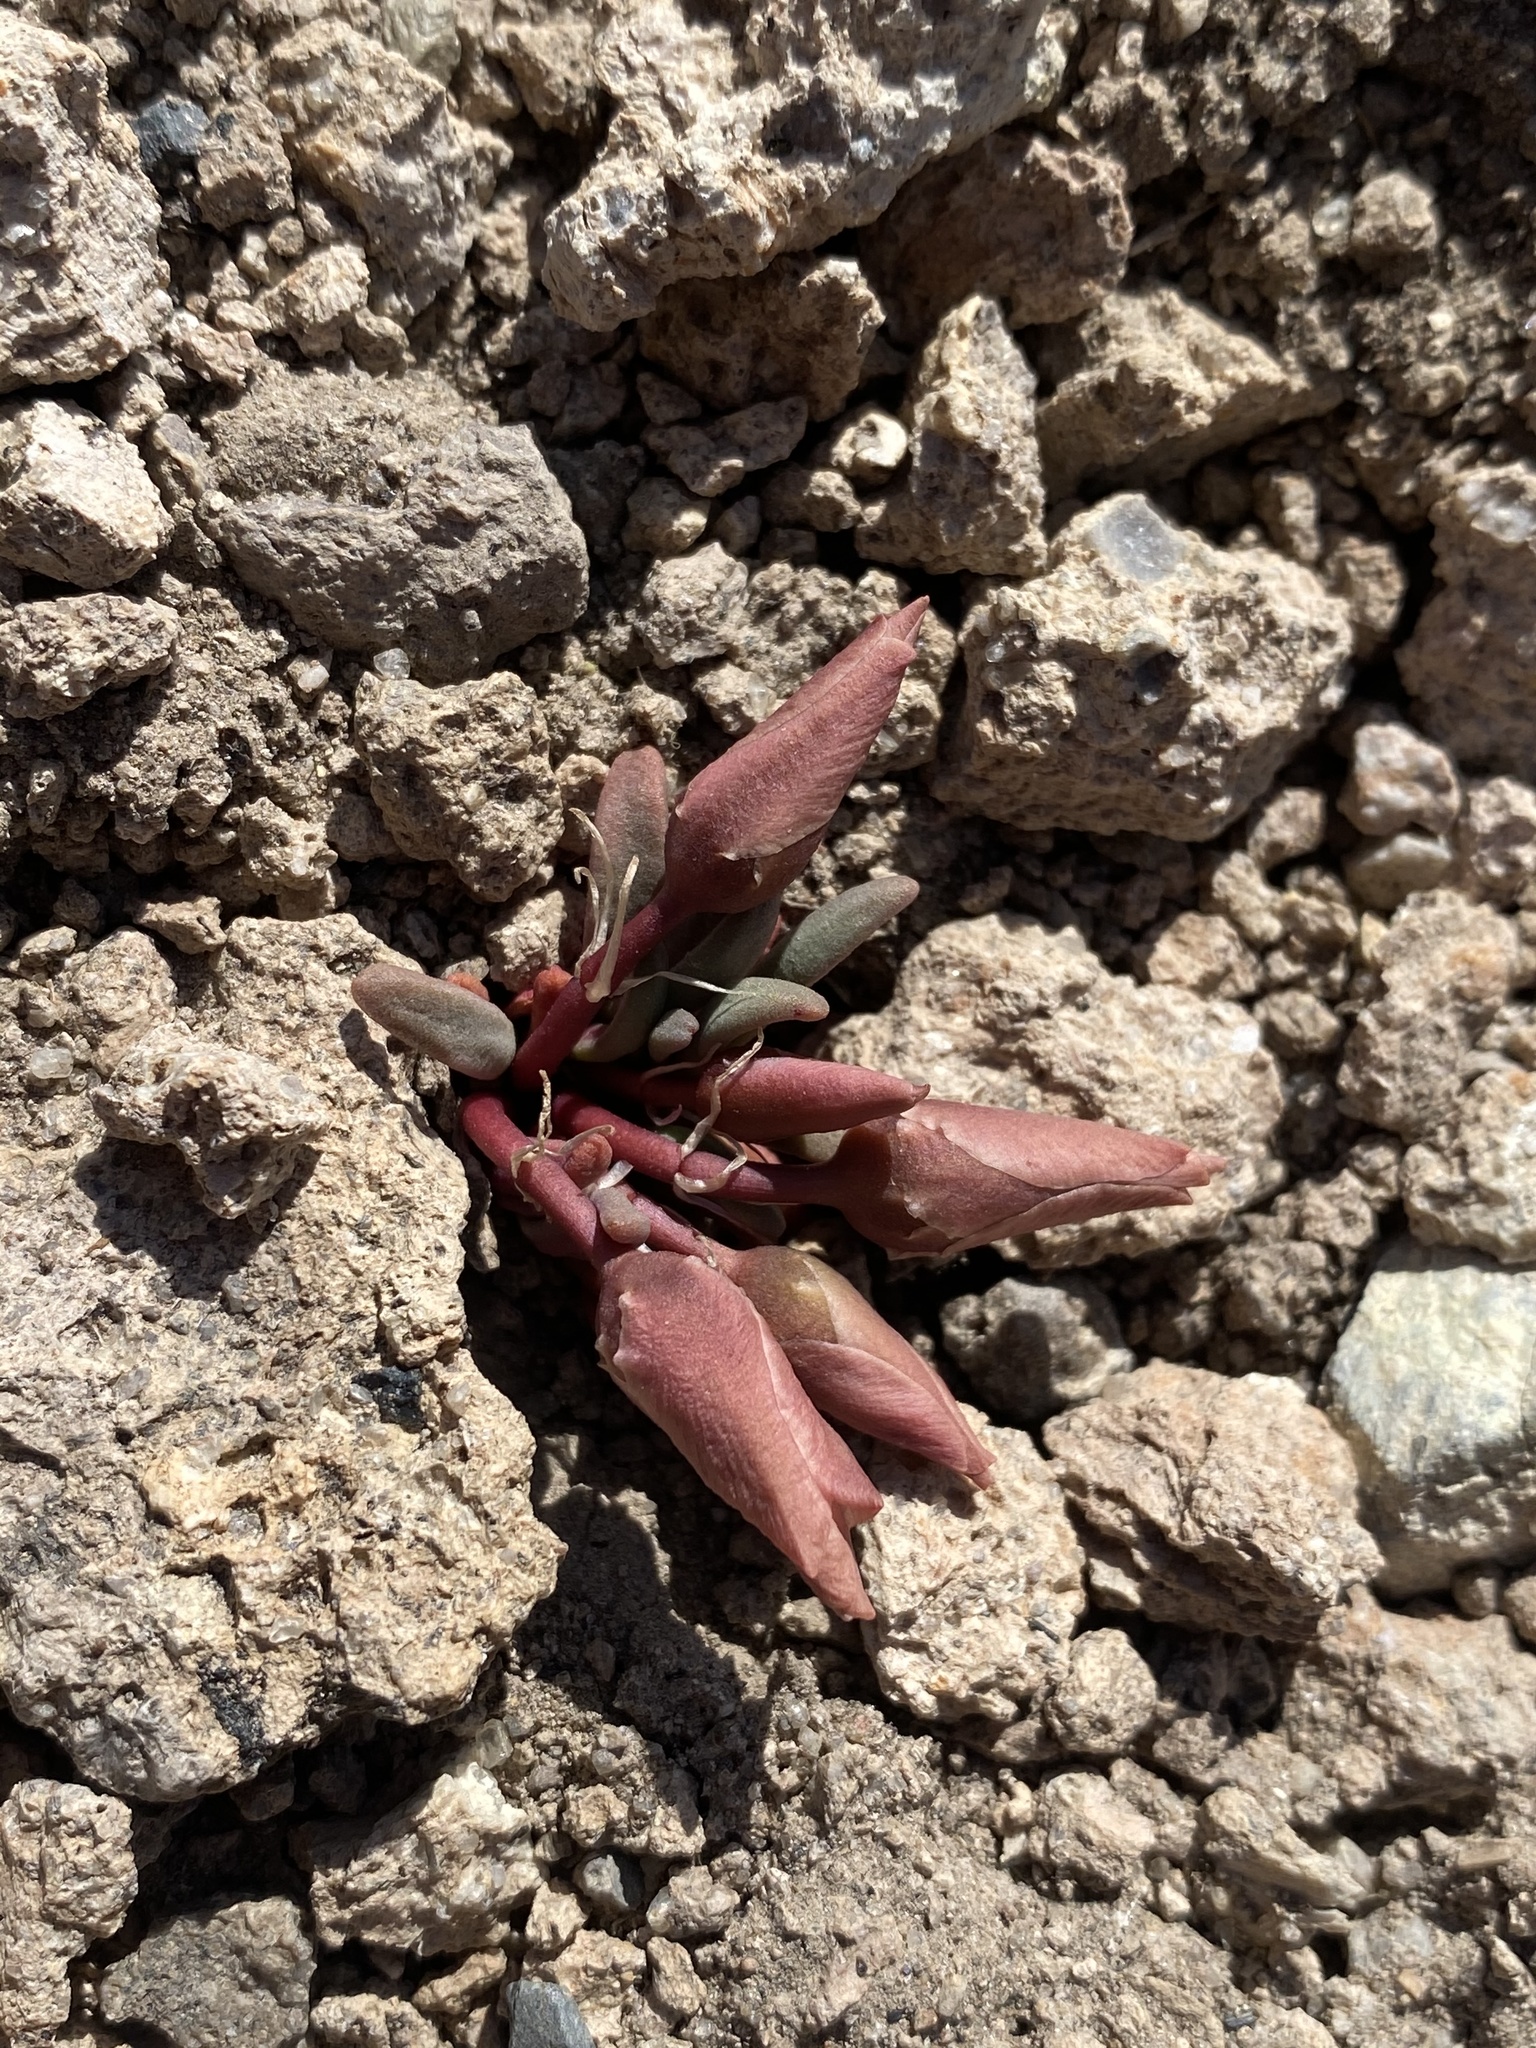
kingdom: Plantae
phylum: Tracheophyta
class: Magnoliopsida
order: Caryophyllales
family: Montiaceae
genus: Lewisia
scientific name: Lewisia rediviva
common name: Bitter-root
